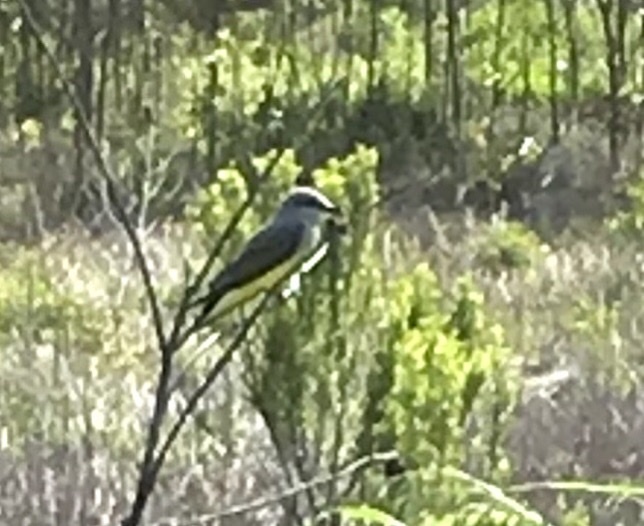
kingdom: Animalia
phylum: Chordata
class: Aves
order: Passeriformes
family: Tyrannidae
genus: Tyrannus
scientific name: Tyrannus verticalis
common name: Western kingbird
